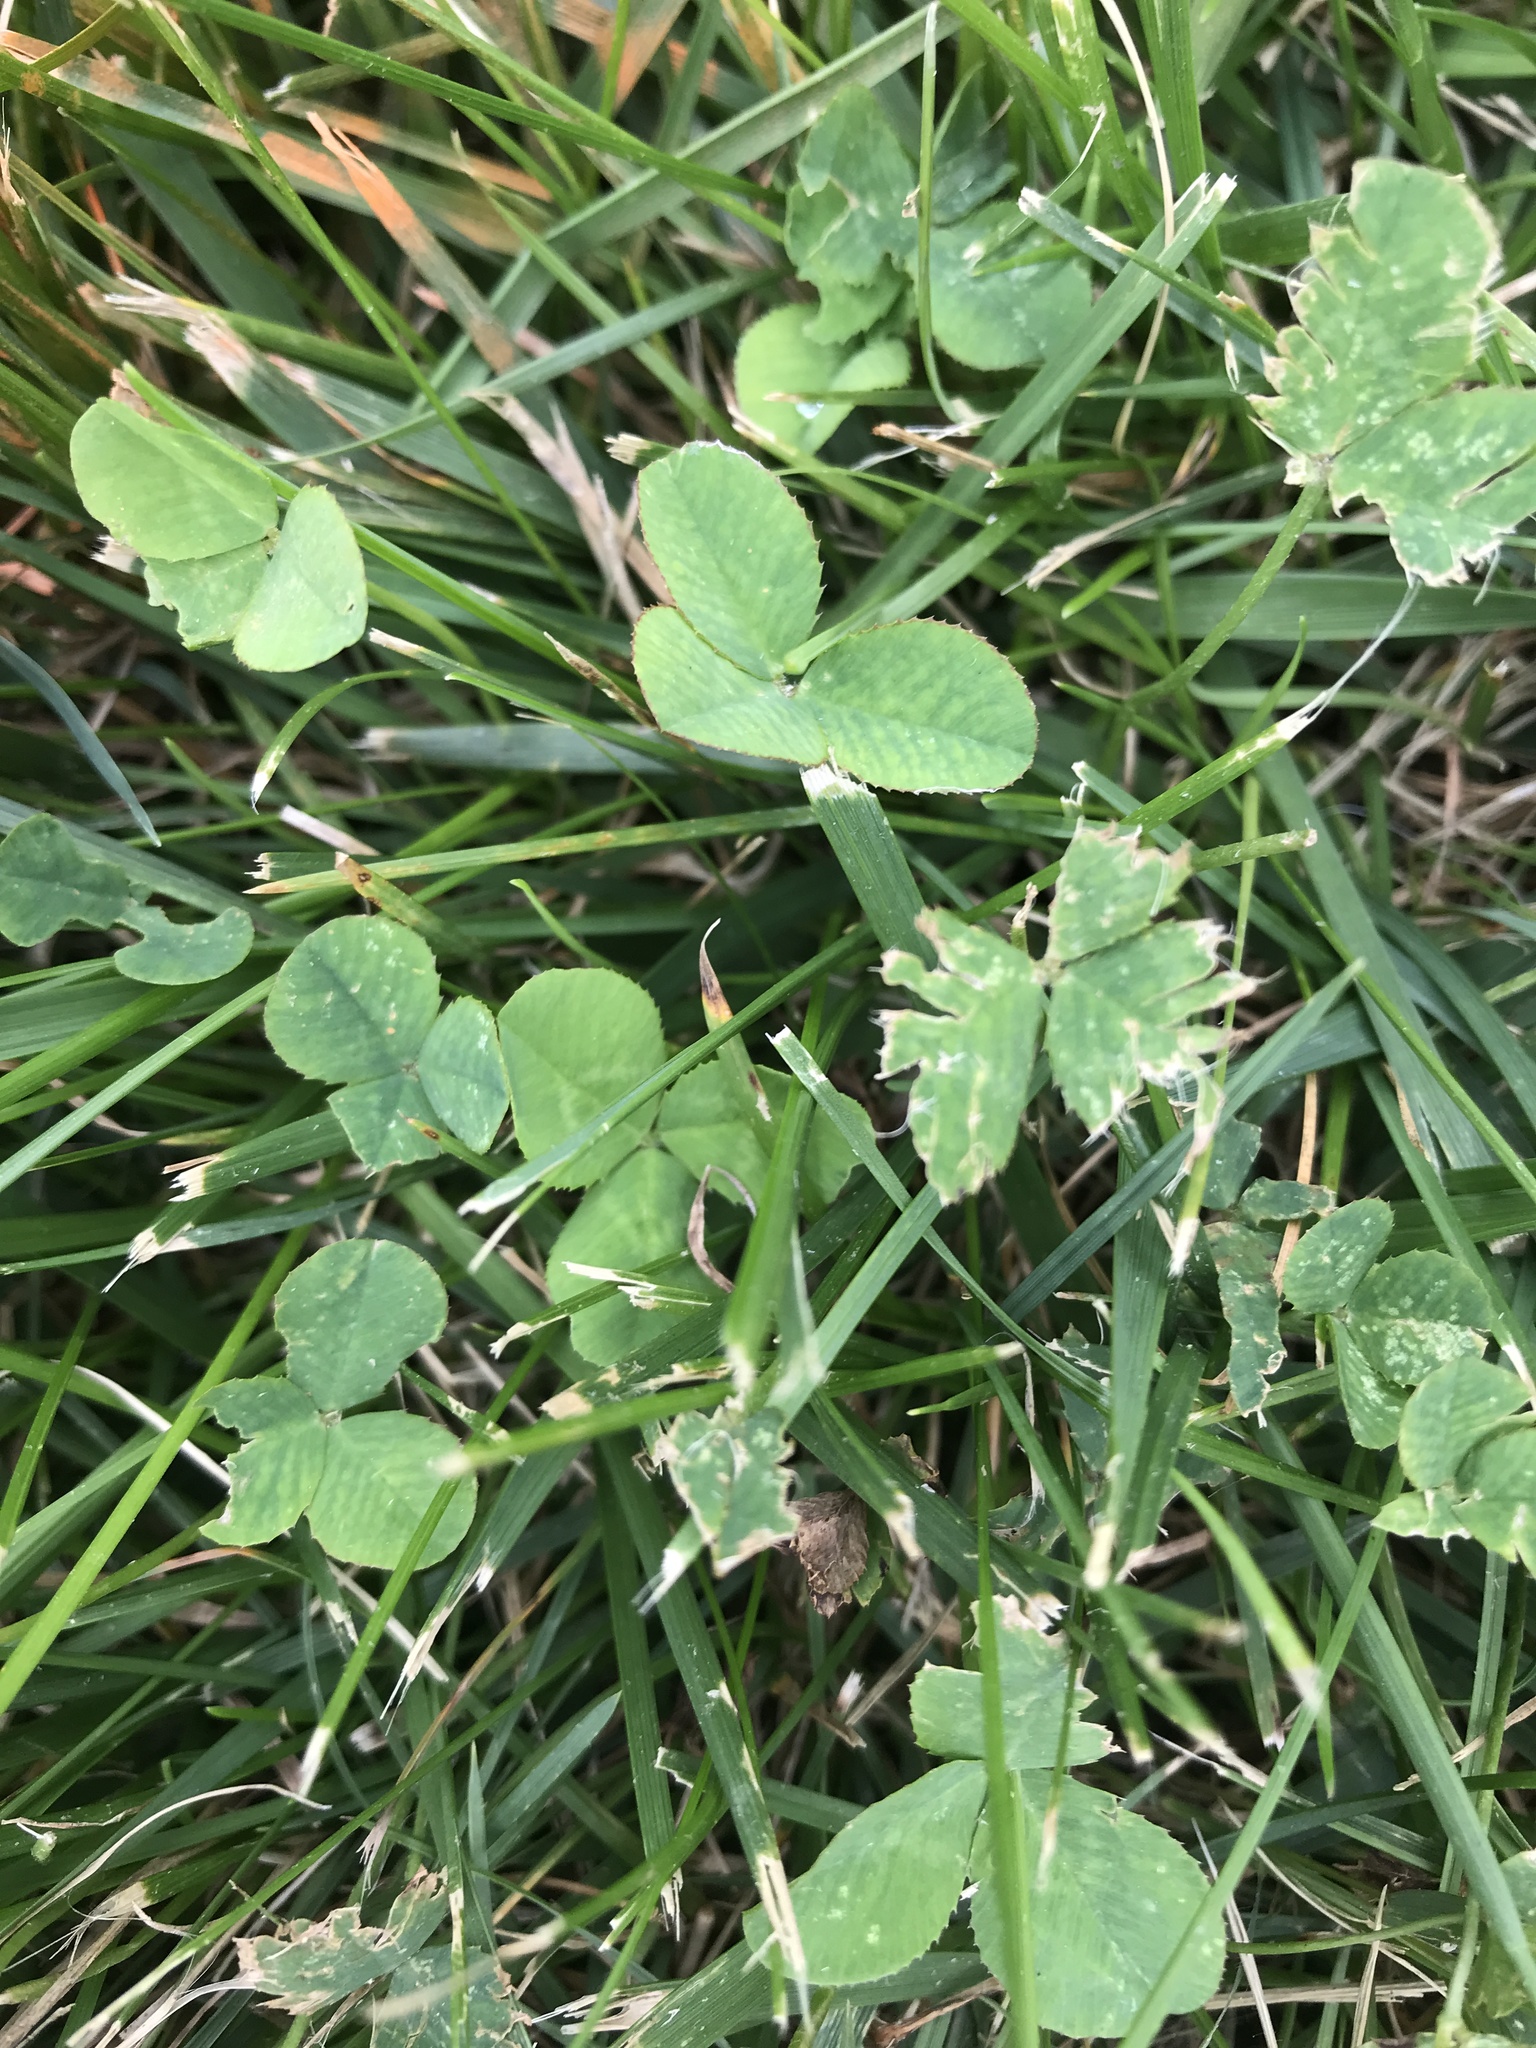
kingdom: Plantae
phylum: Tracheophyta
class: Magnoliopsida
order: Fabales
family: Fabaceae
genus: Trifolium
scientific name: Trifolium repens
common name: White clover
